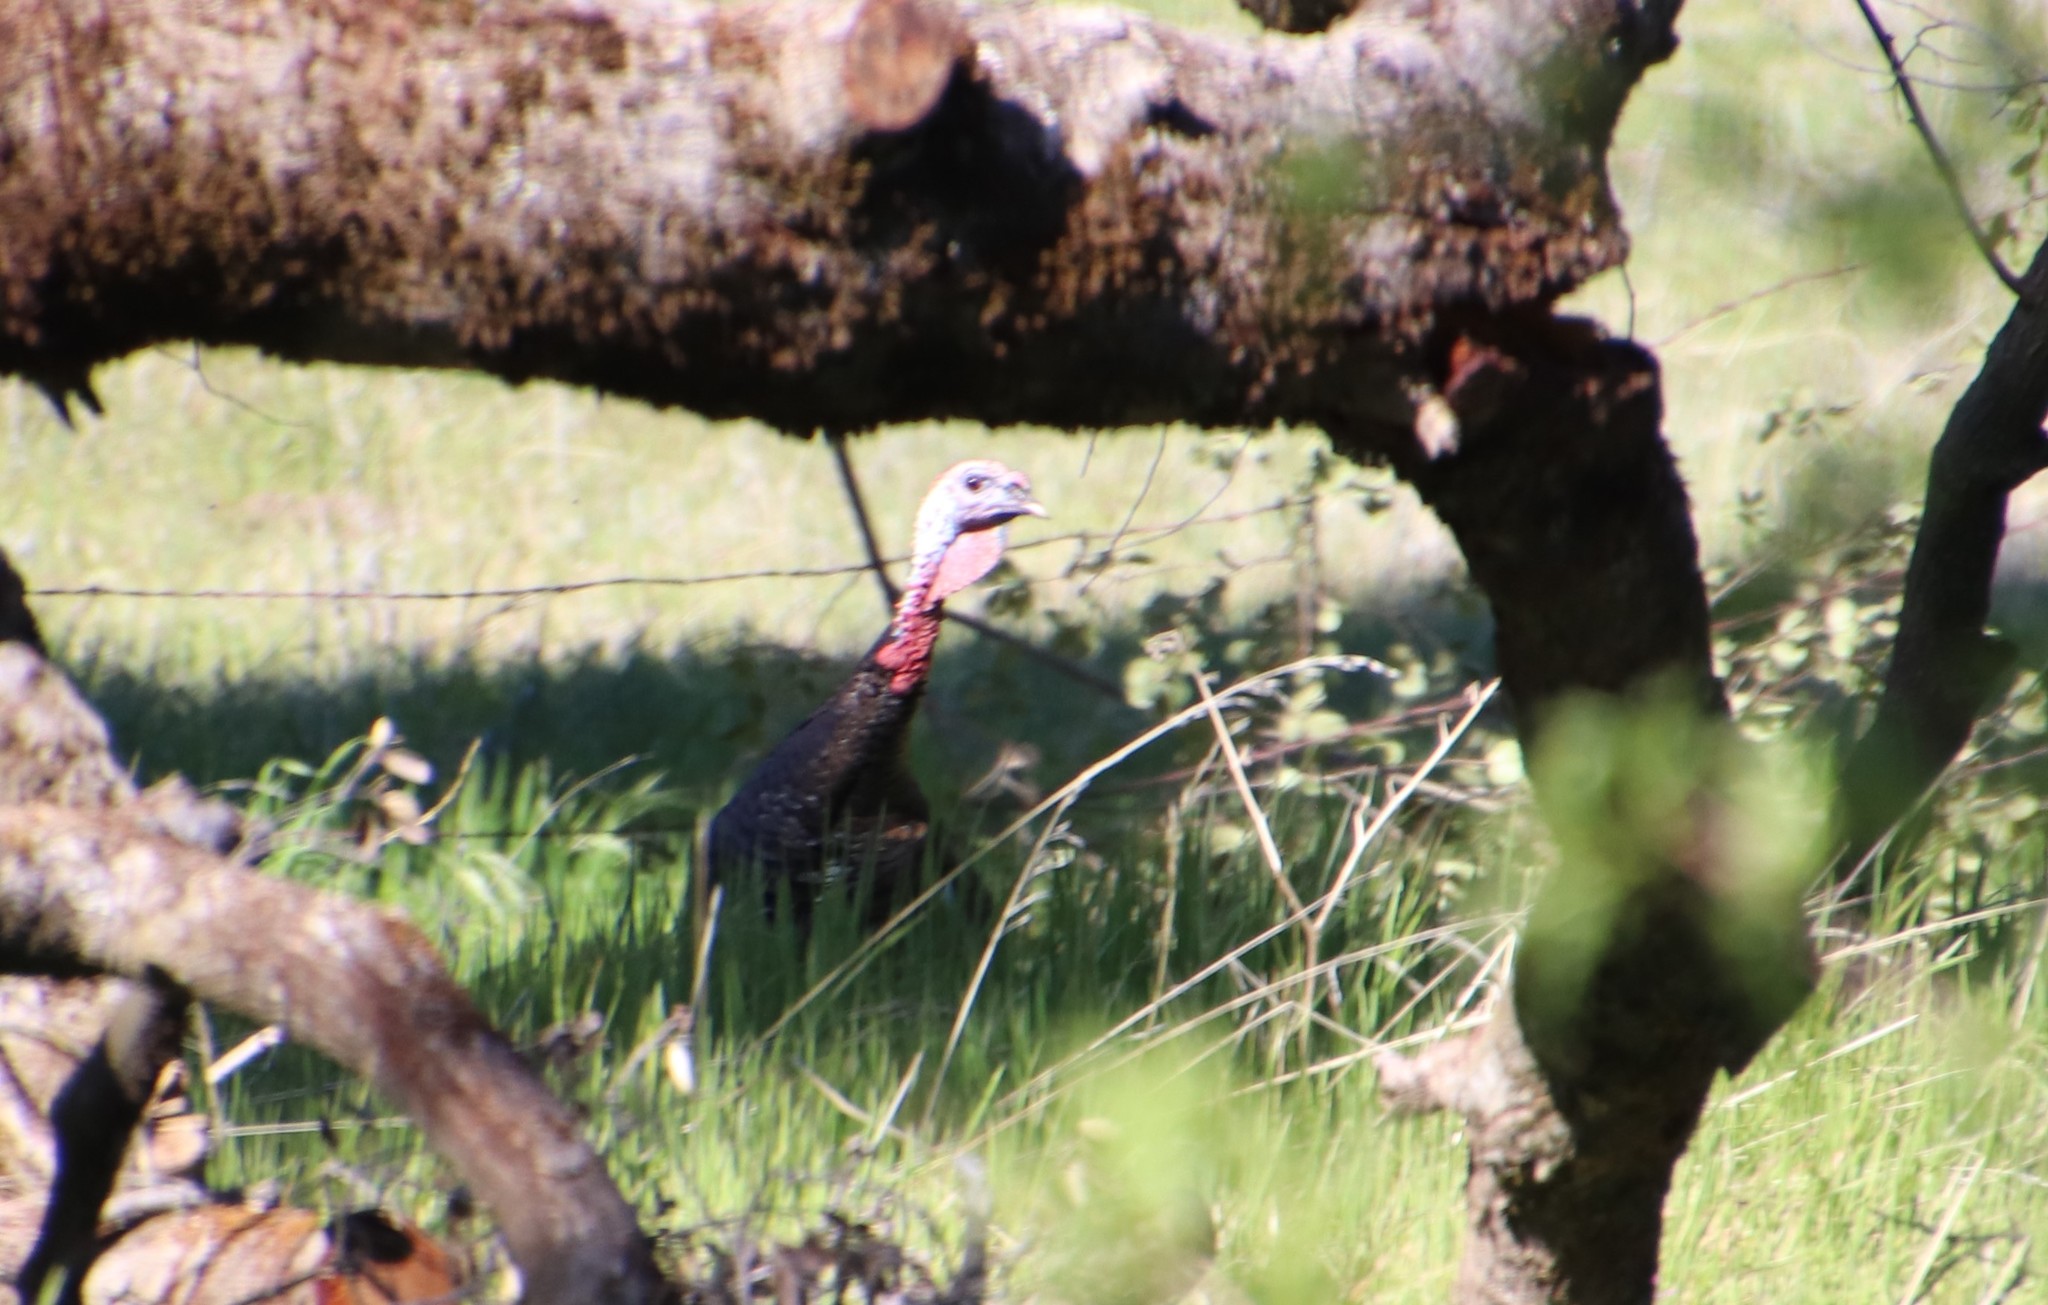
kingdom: Animalia
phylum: Chordata
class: Aves
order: Galliformes
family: Phasianidae
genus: Meleagris
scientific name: Meleagris gallopavo
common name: Wild turkey
